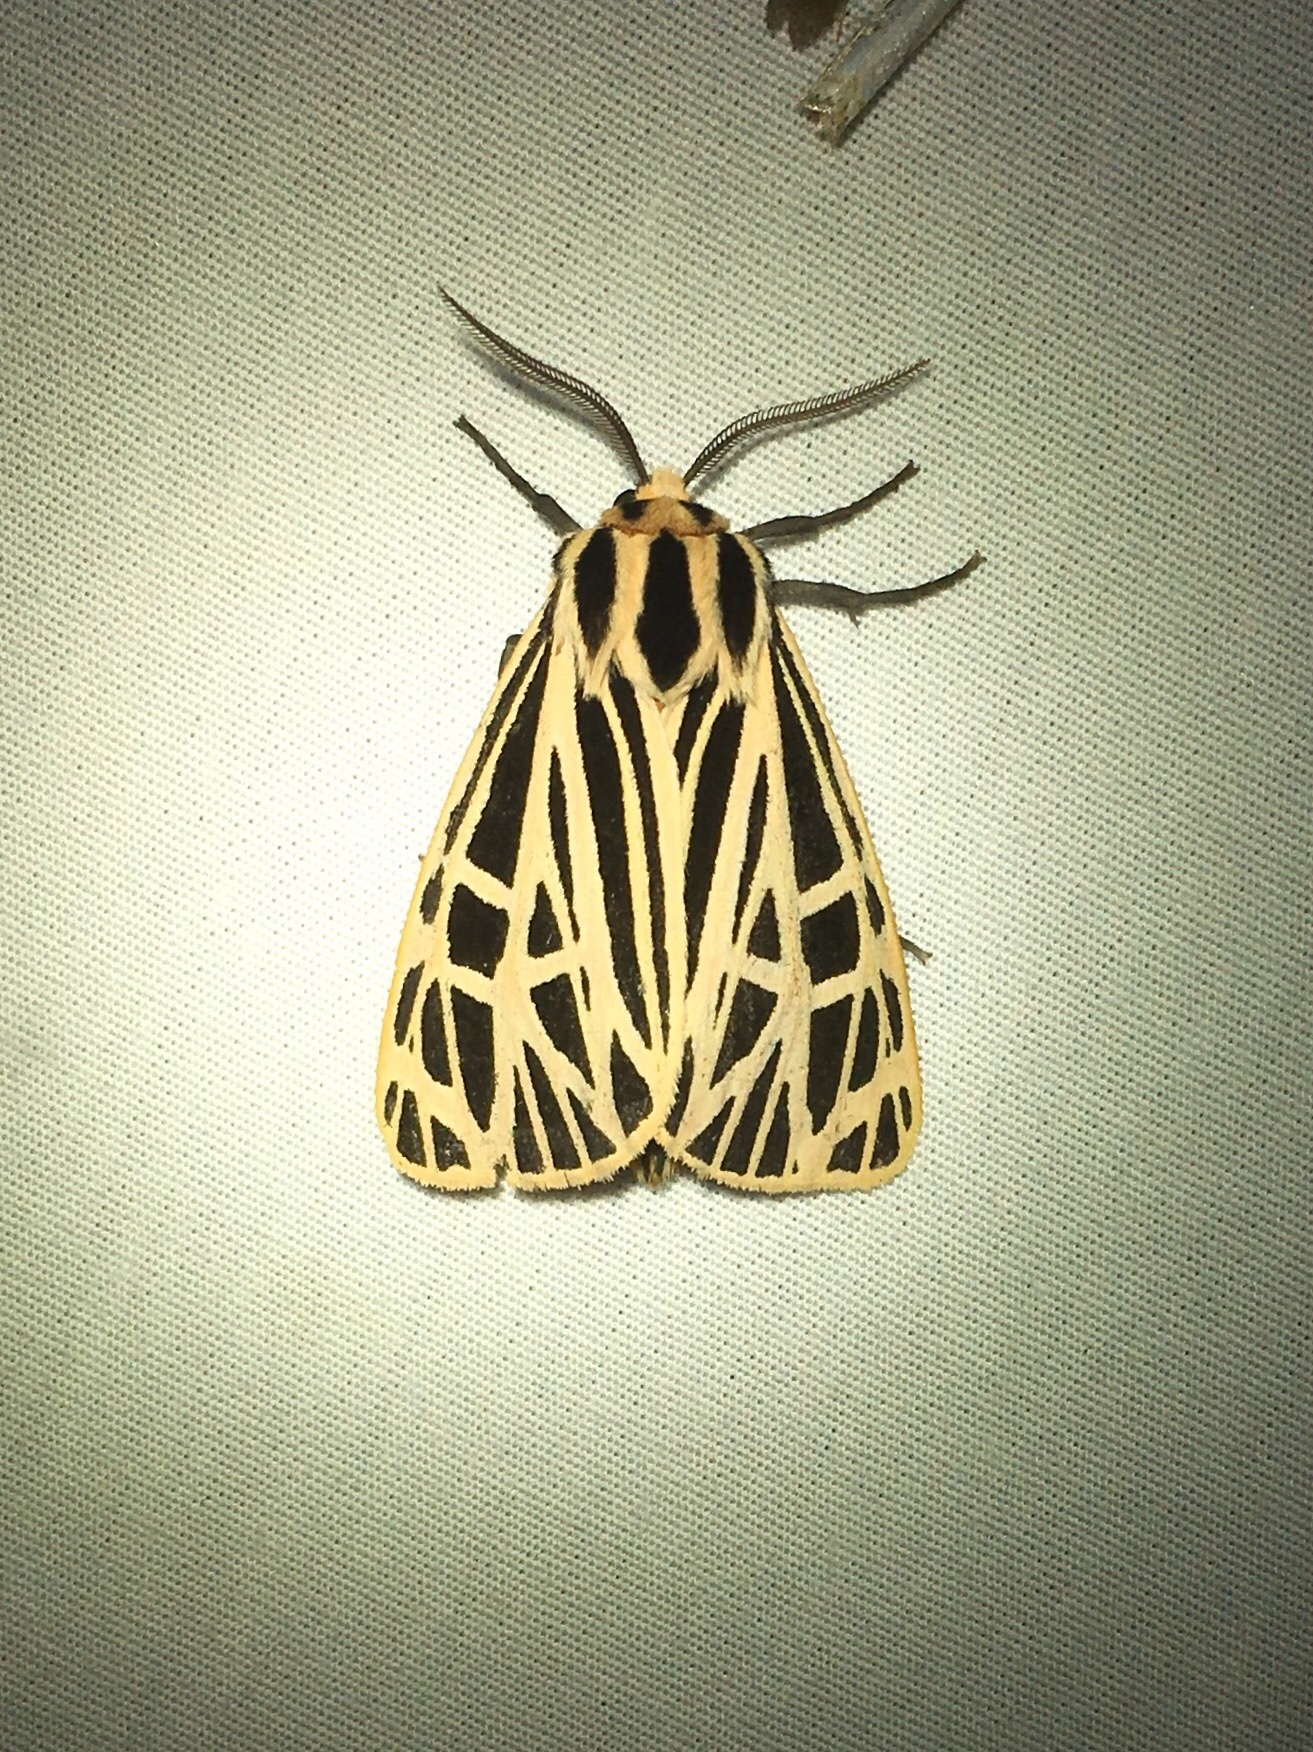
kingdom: Animalia
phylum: Arthropoda
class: Insecta
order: Lepidoptera
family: Erebidae
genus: Grammia
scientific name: Grammia virgo
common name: Virgin tiger moth
